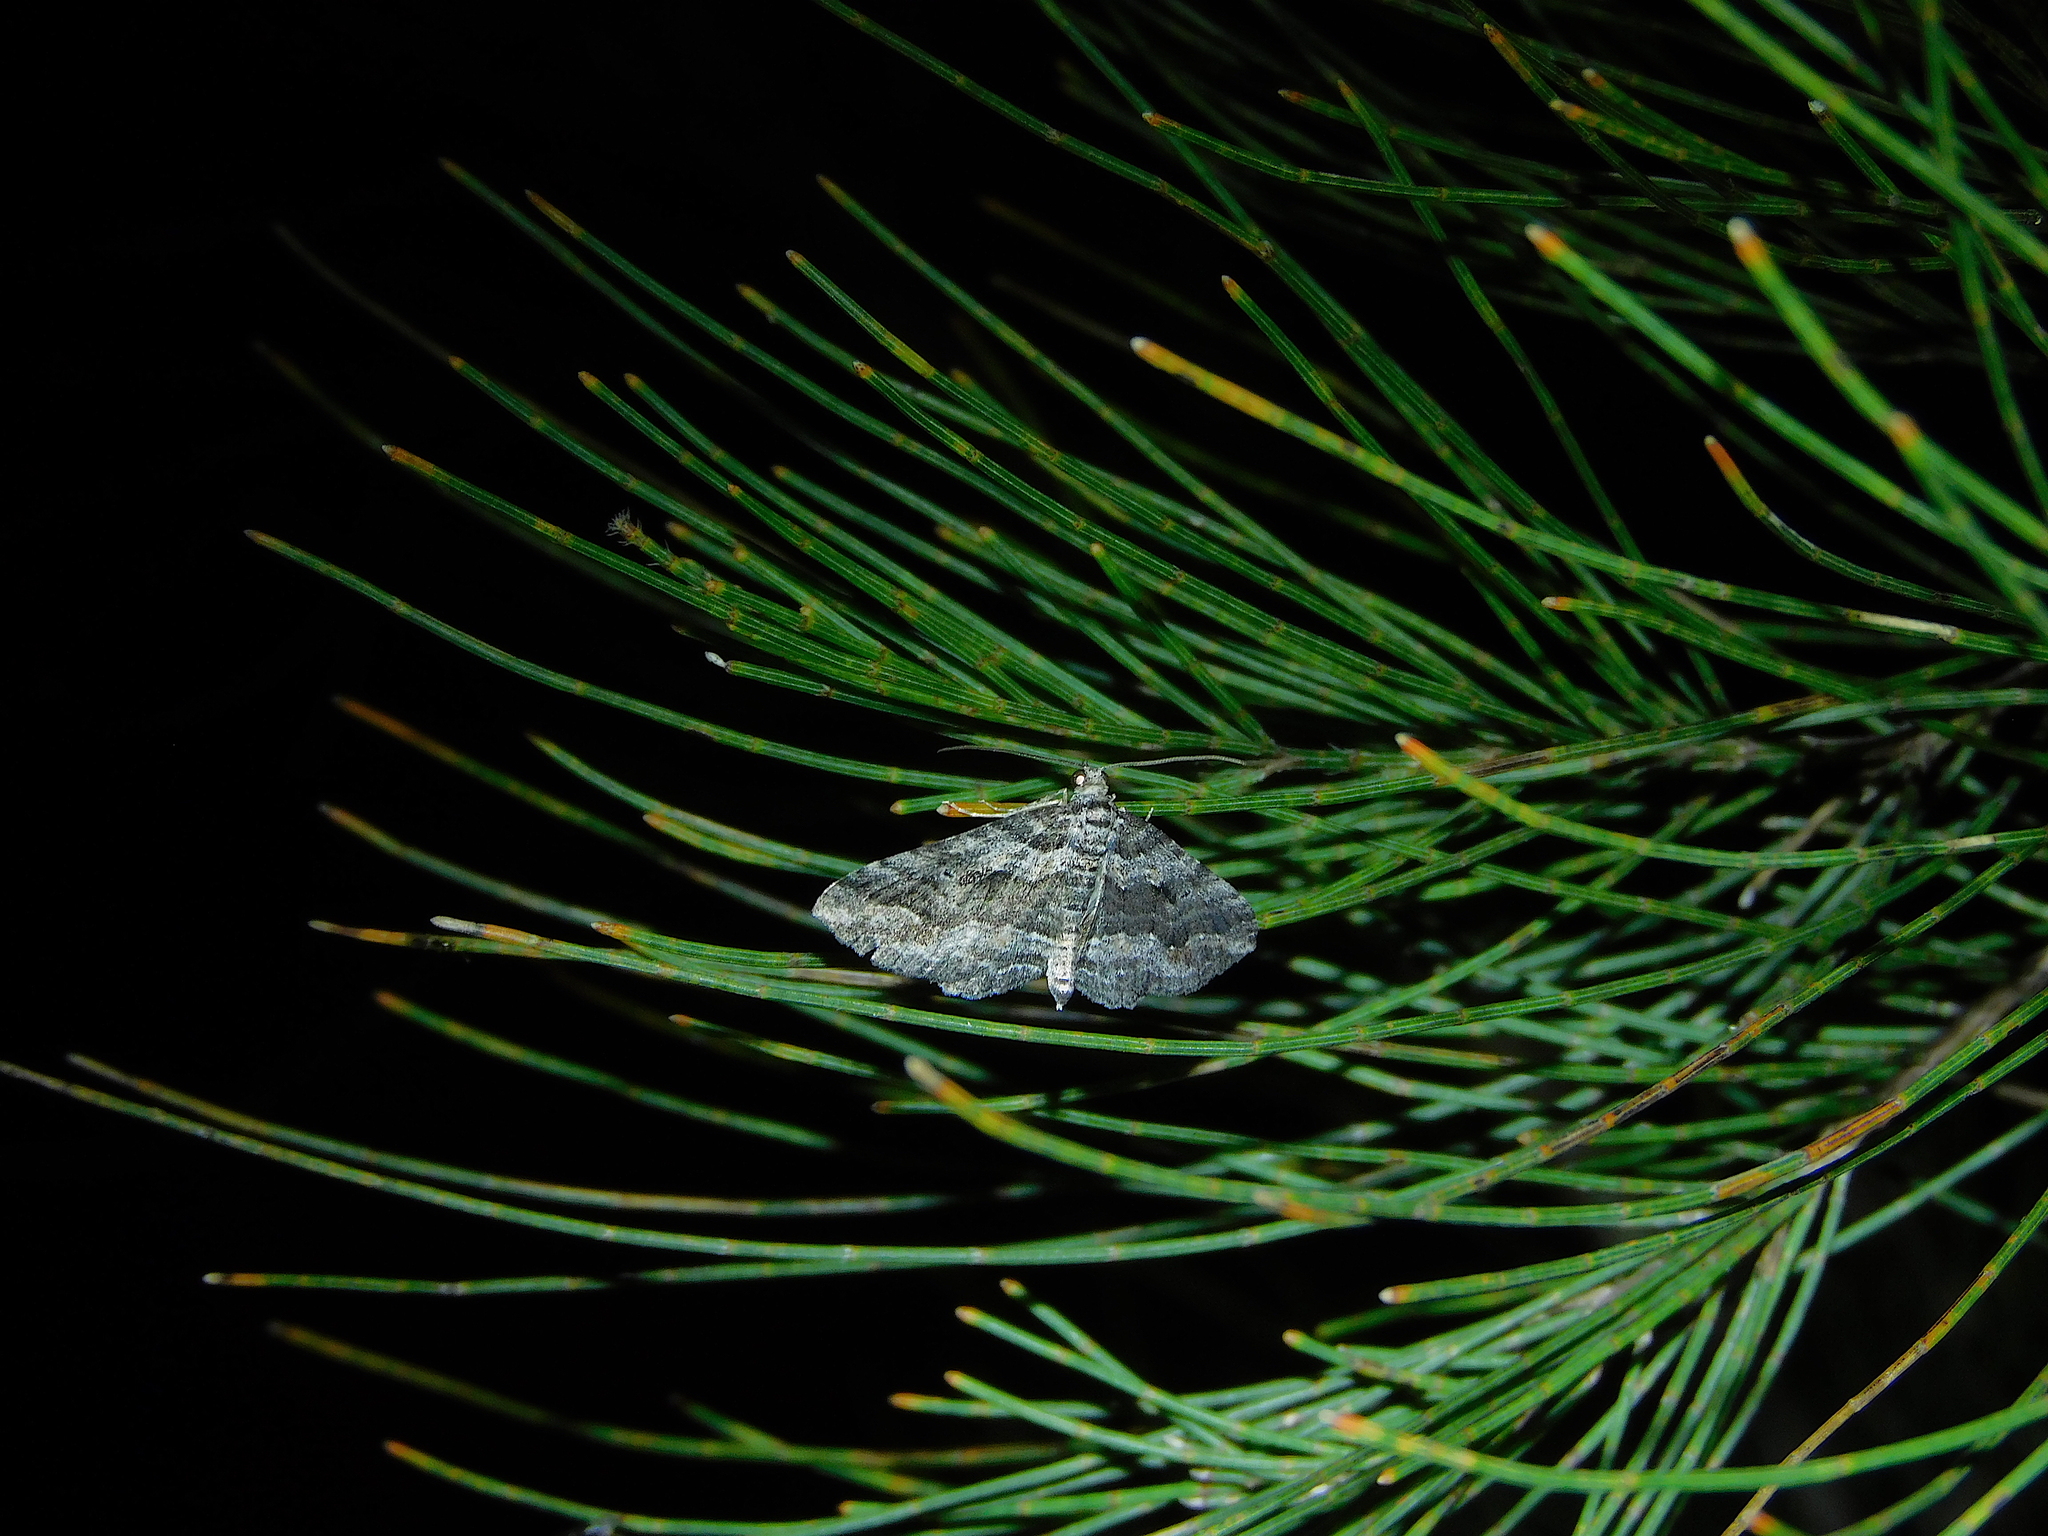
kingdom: Animalia
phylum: Arthropoda
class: Insecta
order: Lepidoptera
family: Geometridae
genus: Chrysolarentia
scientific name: Chrysolarentia severata
